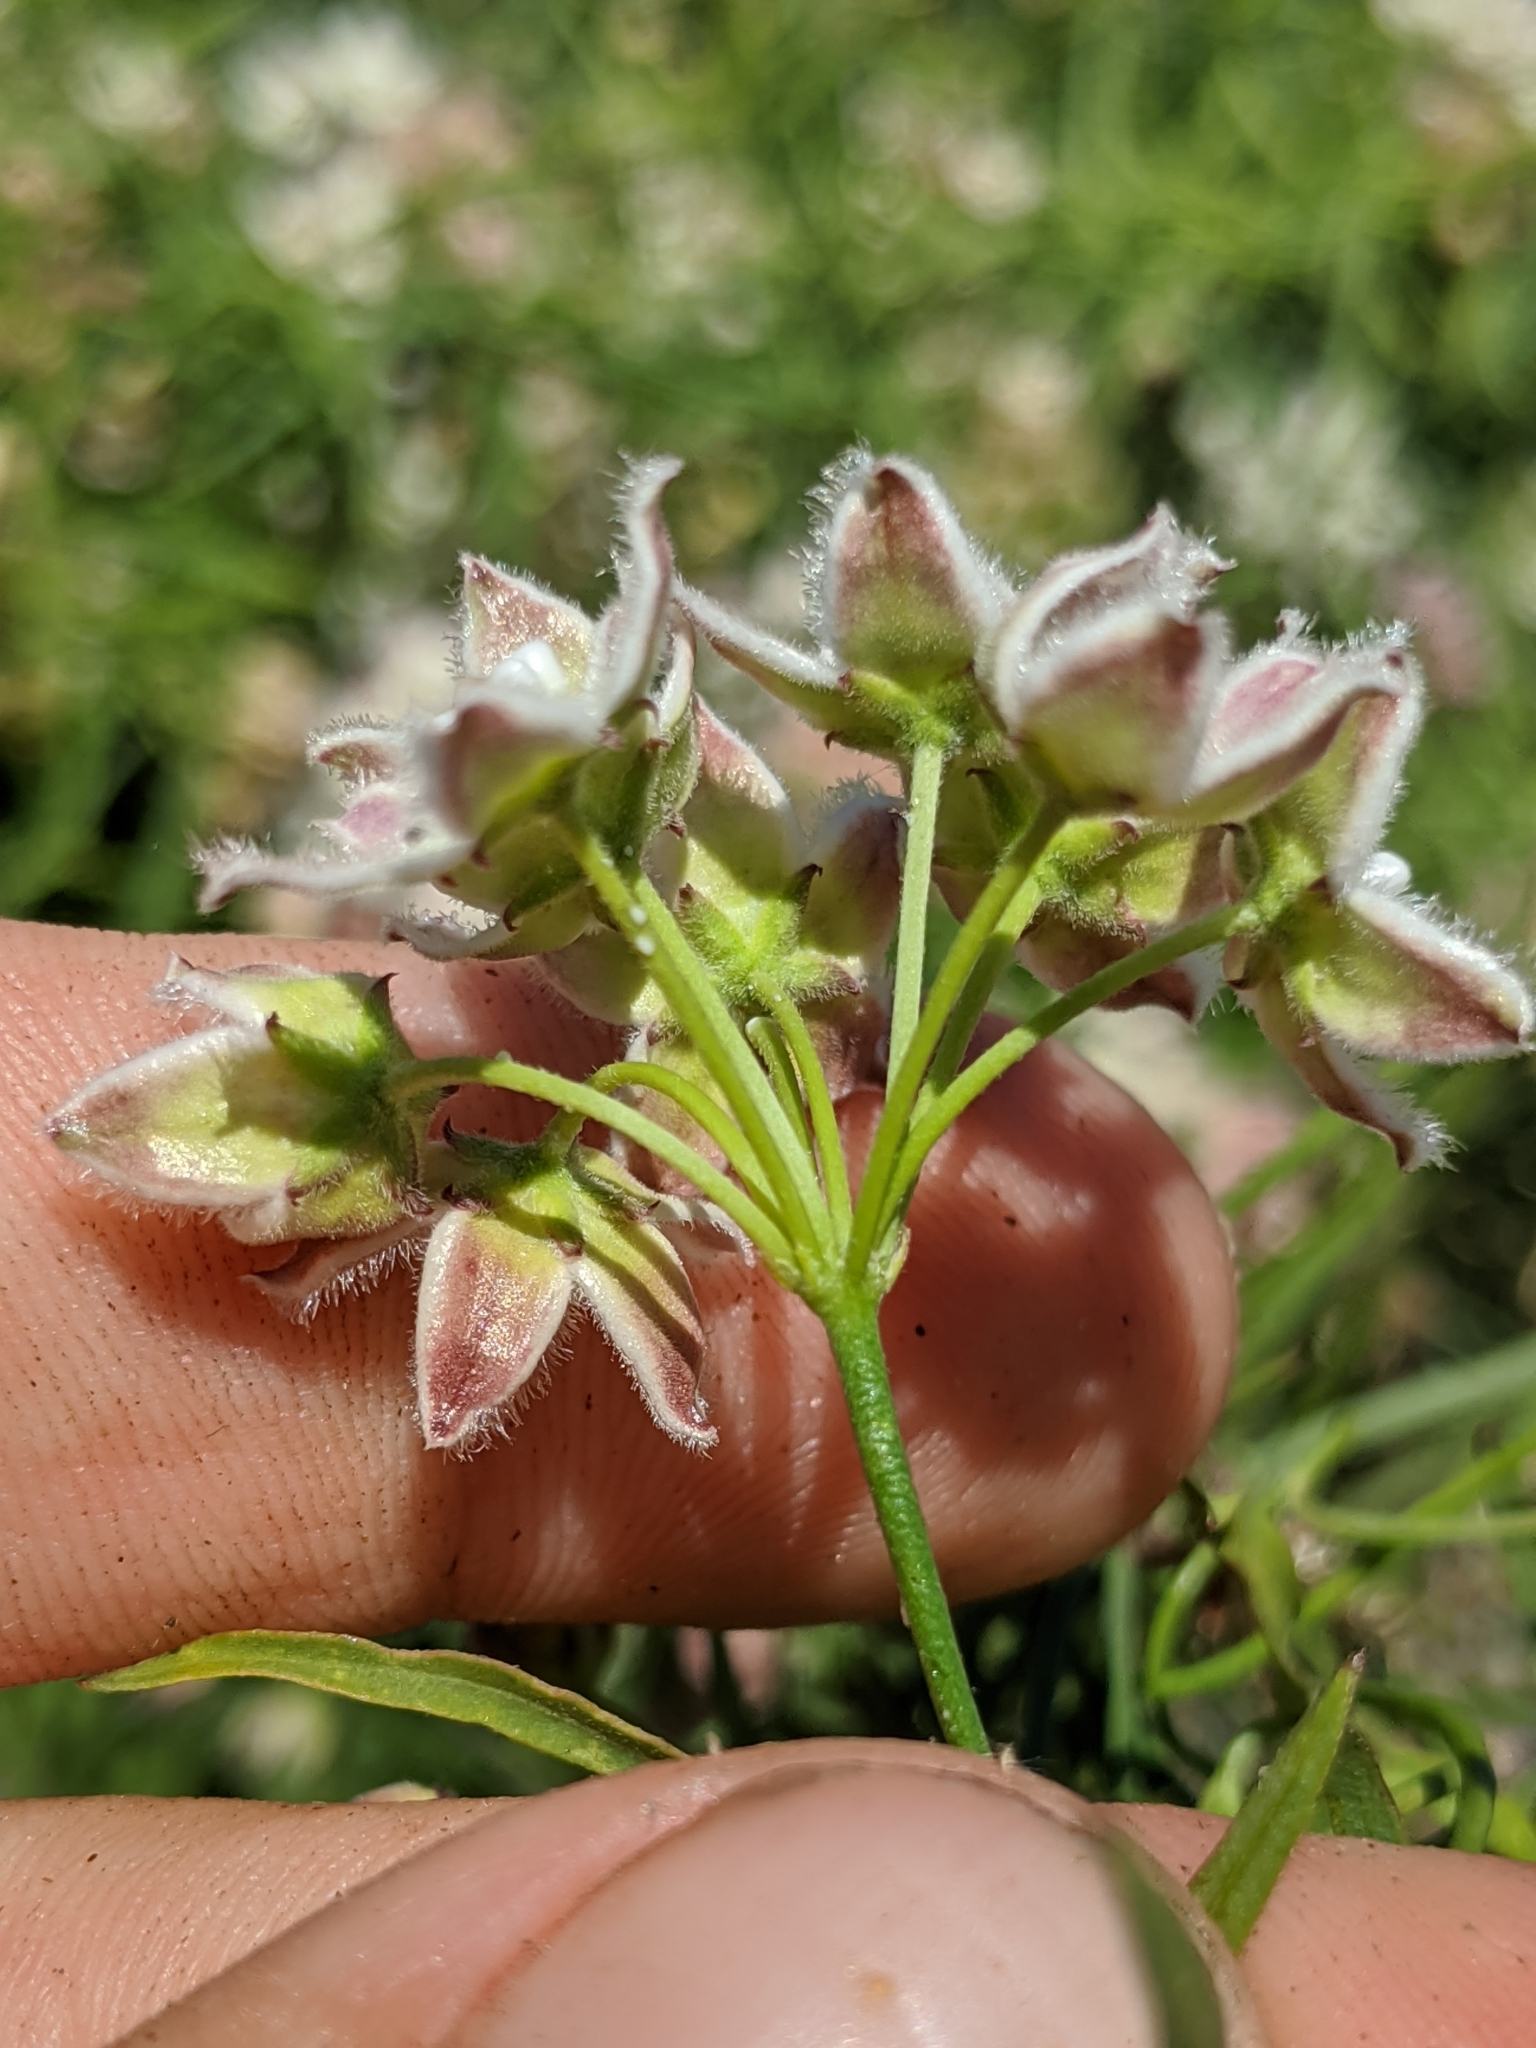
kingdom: Plantae
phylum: Tracheophyta
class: Magnoliopsida
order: Gentianales
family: Apocynaceae
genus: Funastrum
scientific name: Funastrum heterophyllum
